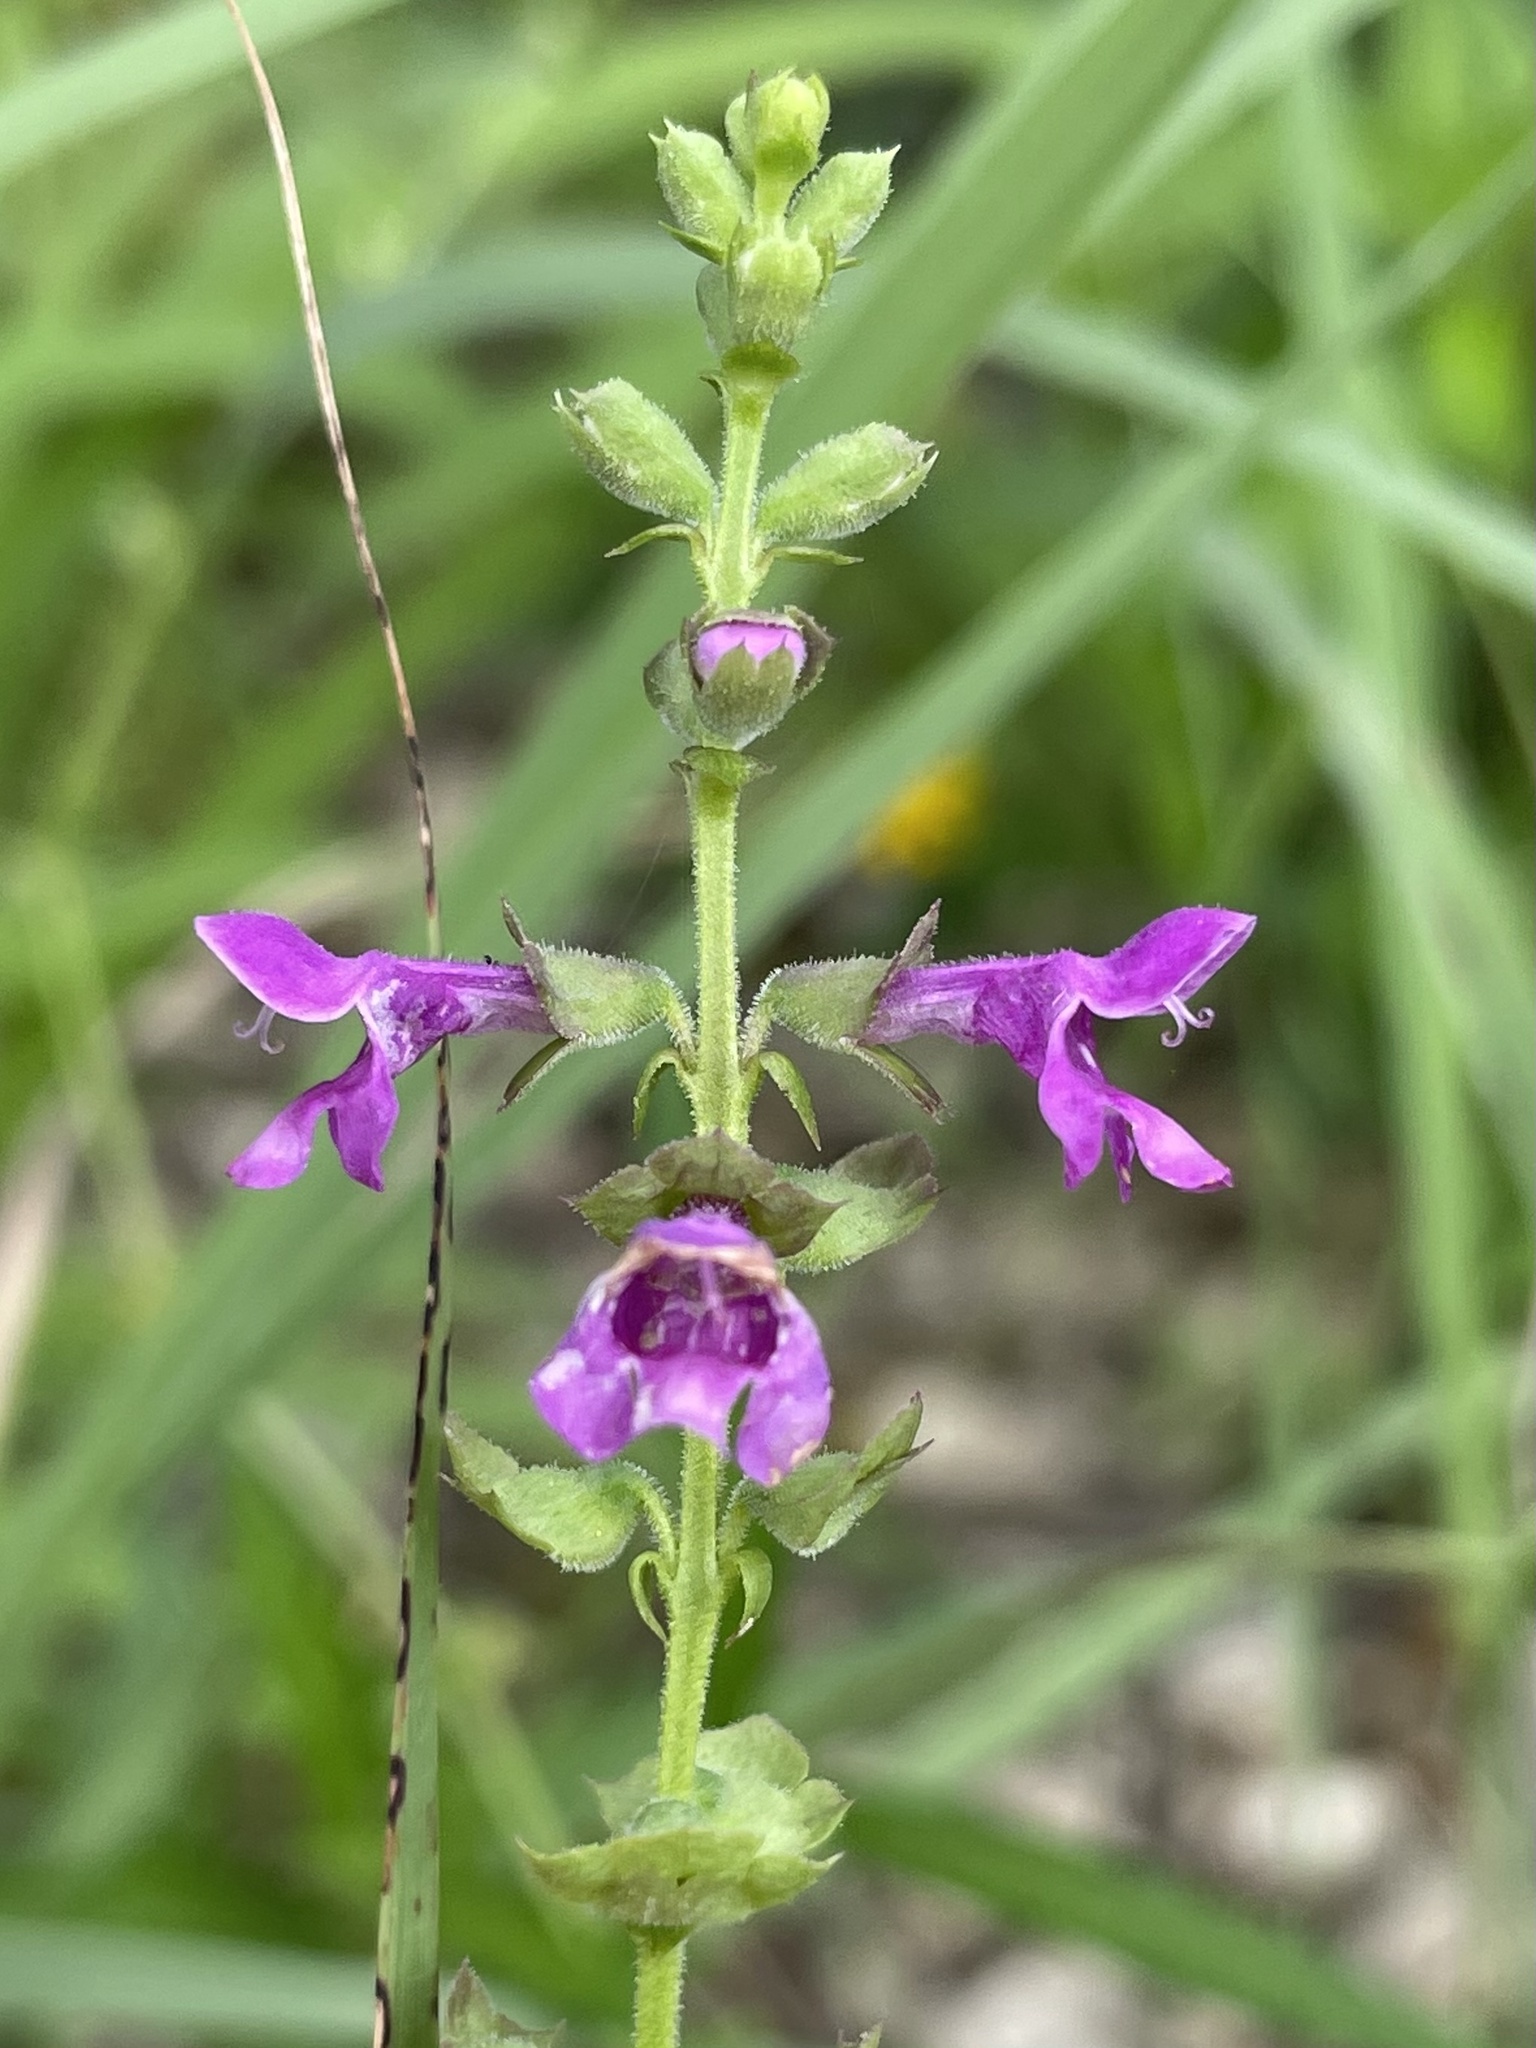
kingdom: Plantae
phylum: Tracheophyta
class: Magnoliopsida
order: Lamiales
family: Lamiaceae
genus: Warnockia
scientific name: Warnockia scutellarioides
